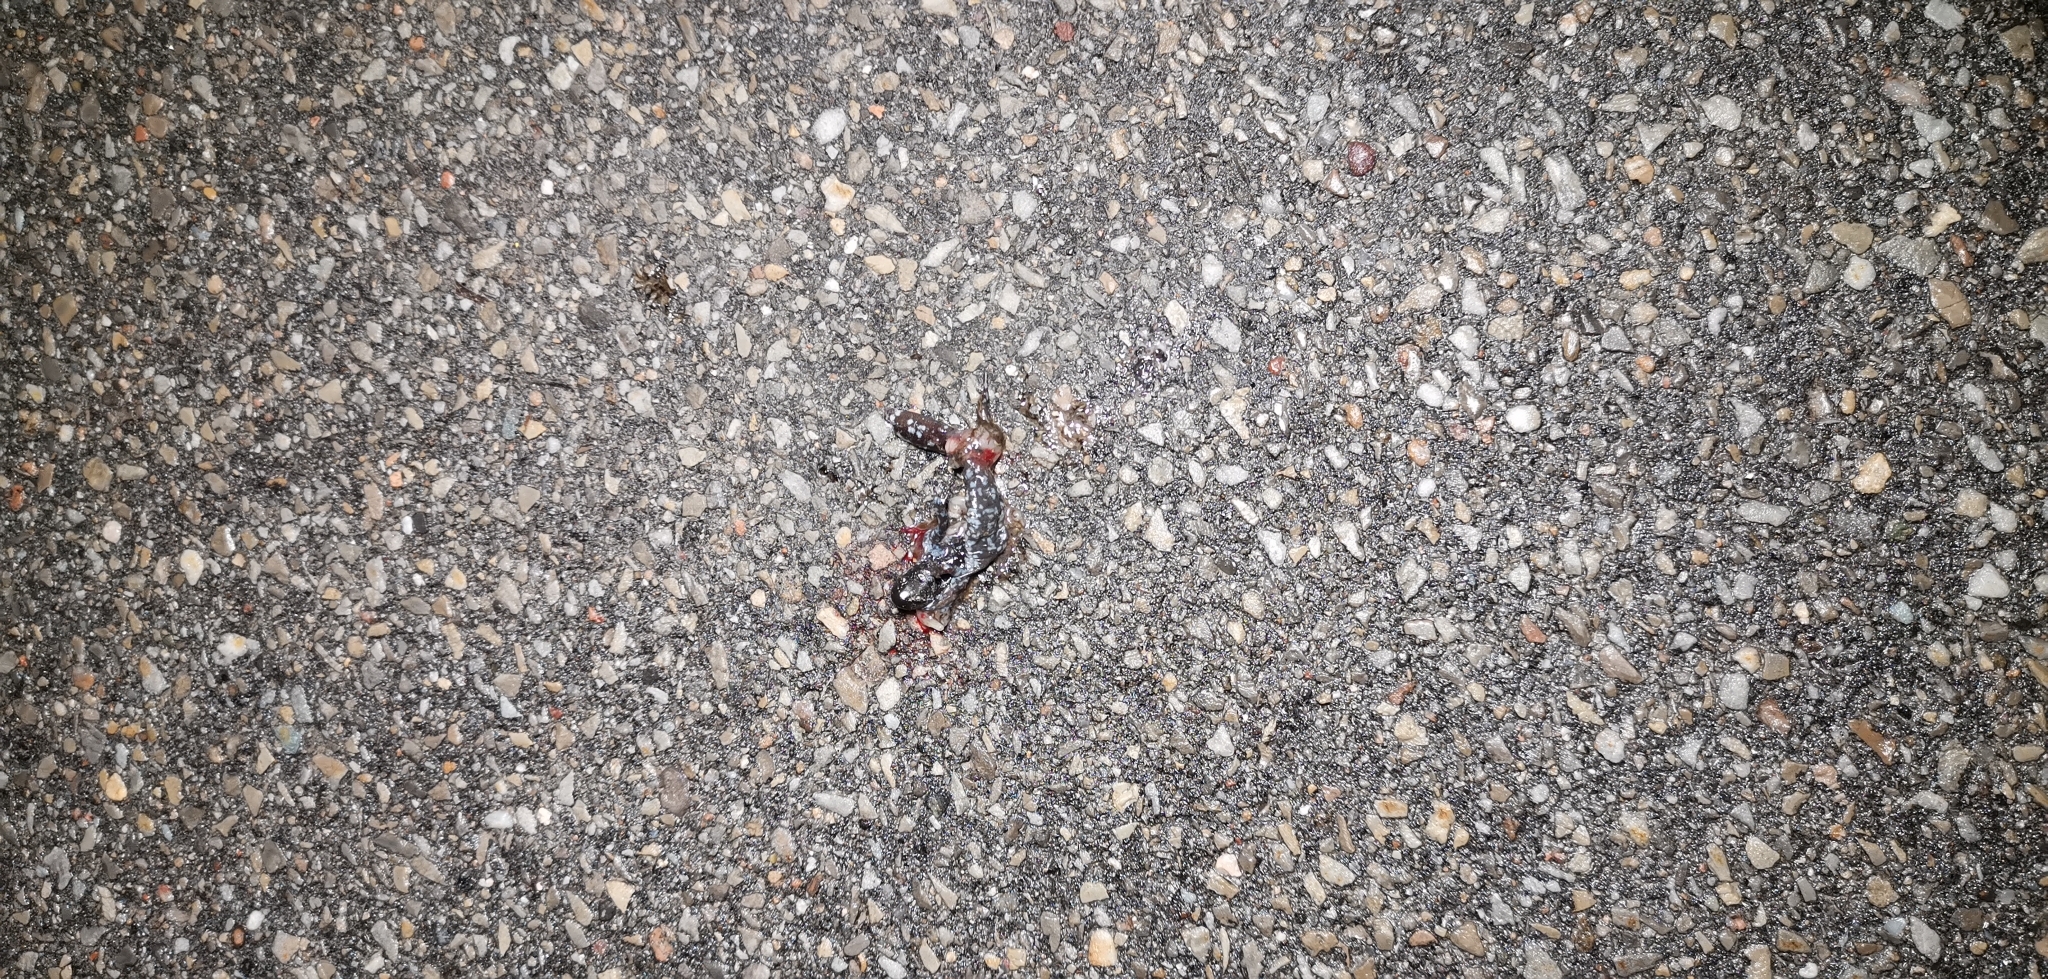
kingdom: Animalia
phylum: Chordata
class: Amphibia
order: Caudata
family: Ambystomatidae
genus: Ambystoma
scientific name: Ambystoma laterale
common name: Blue-spotted salamander
